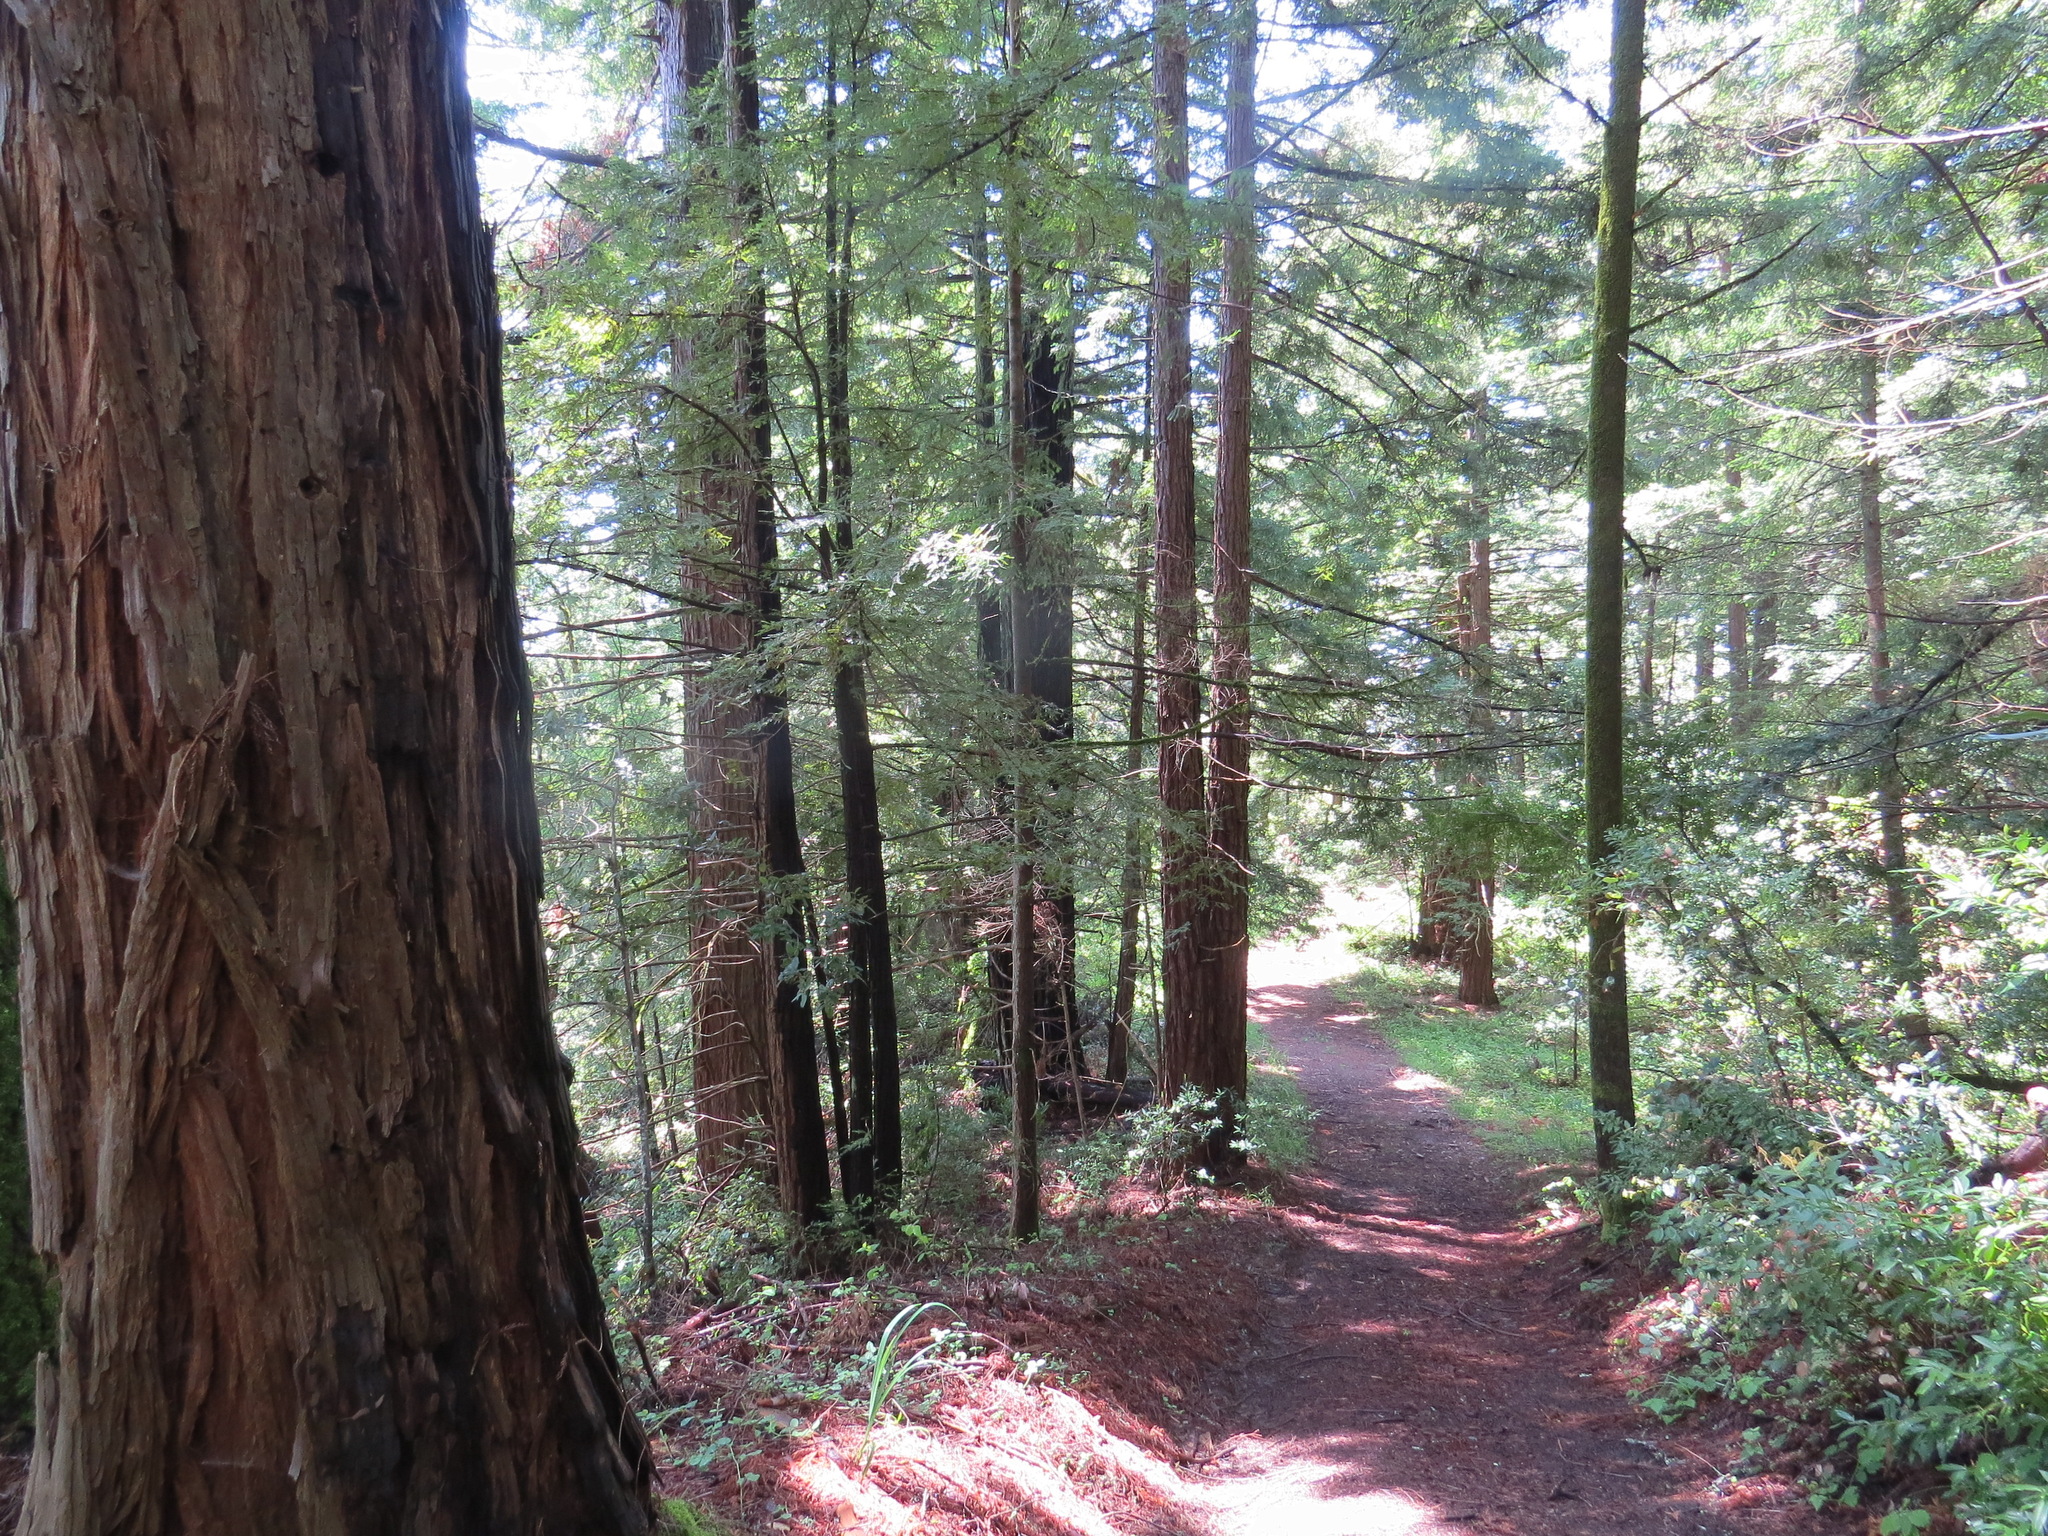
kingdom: Plantae
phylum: Tracheophyta
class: Pinopsida
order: Pinales
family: Cupressaceae
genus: Sequoia
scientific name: Sequoia sempervirens
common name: Coast redwood
